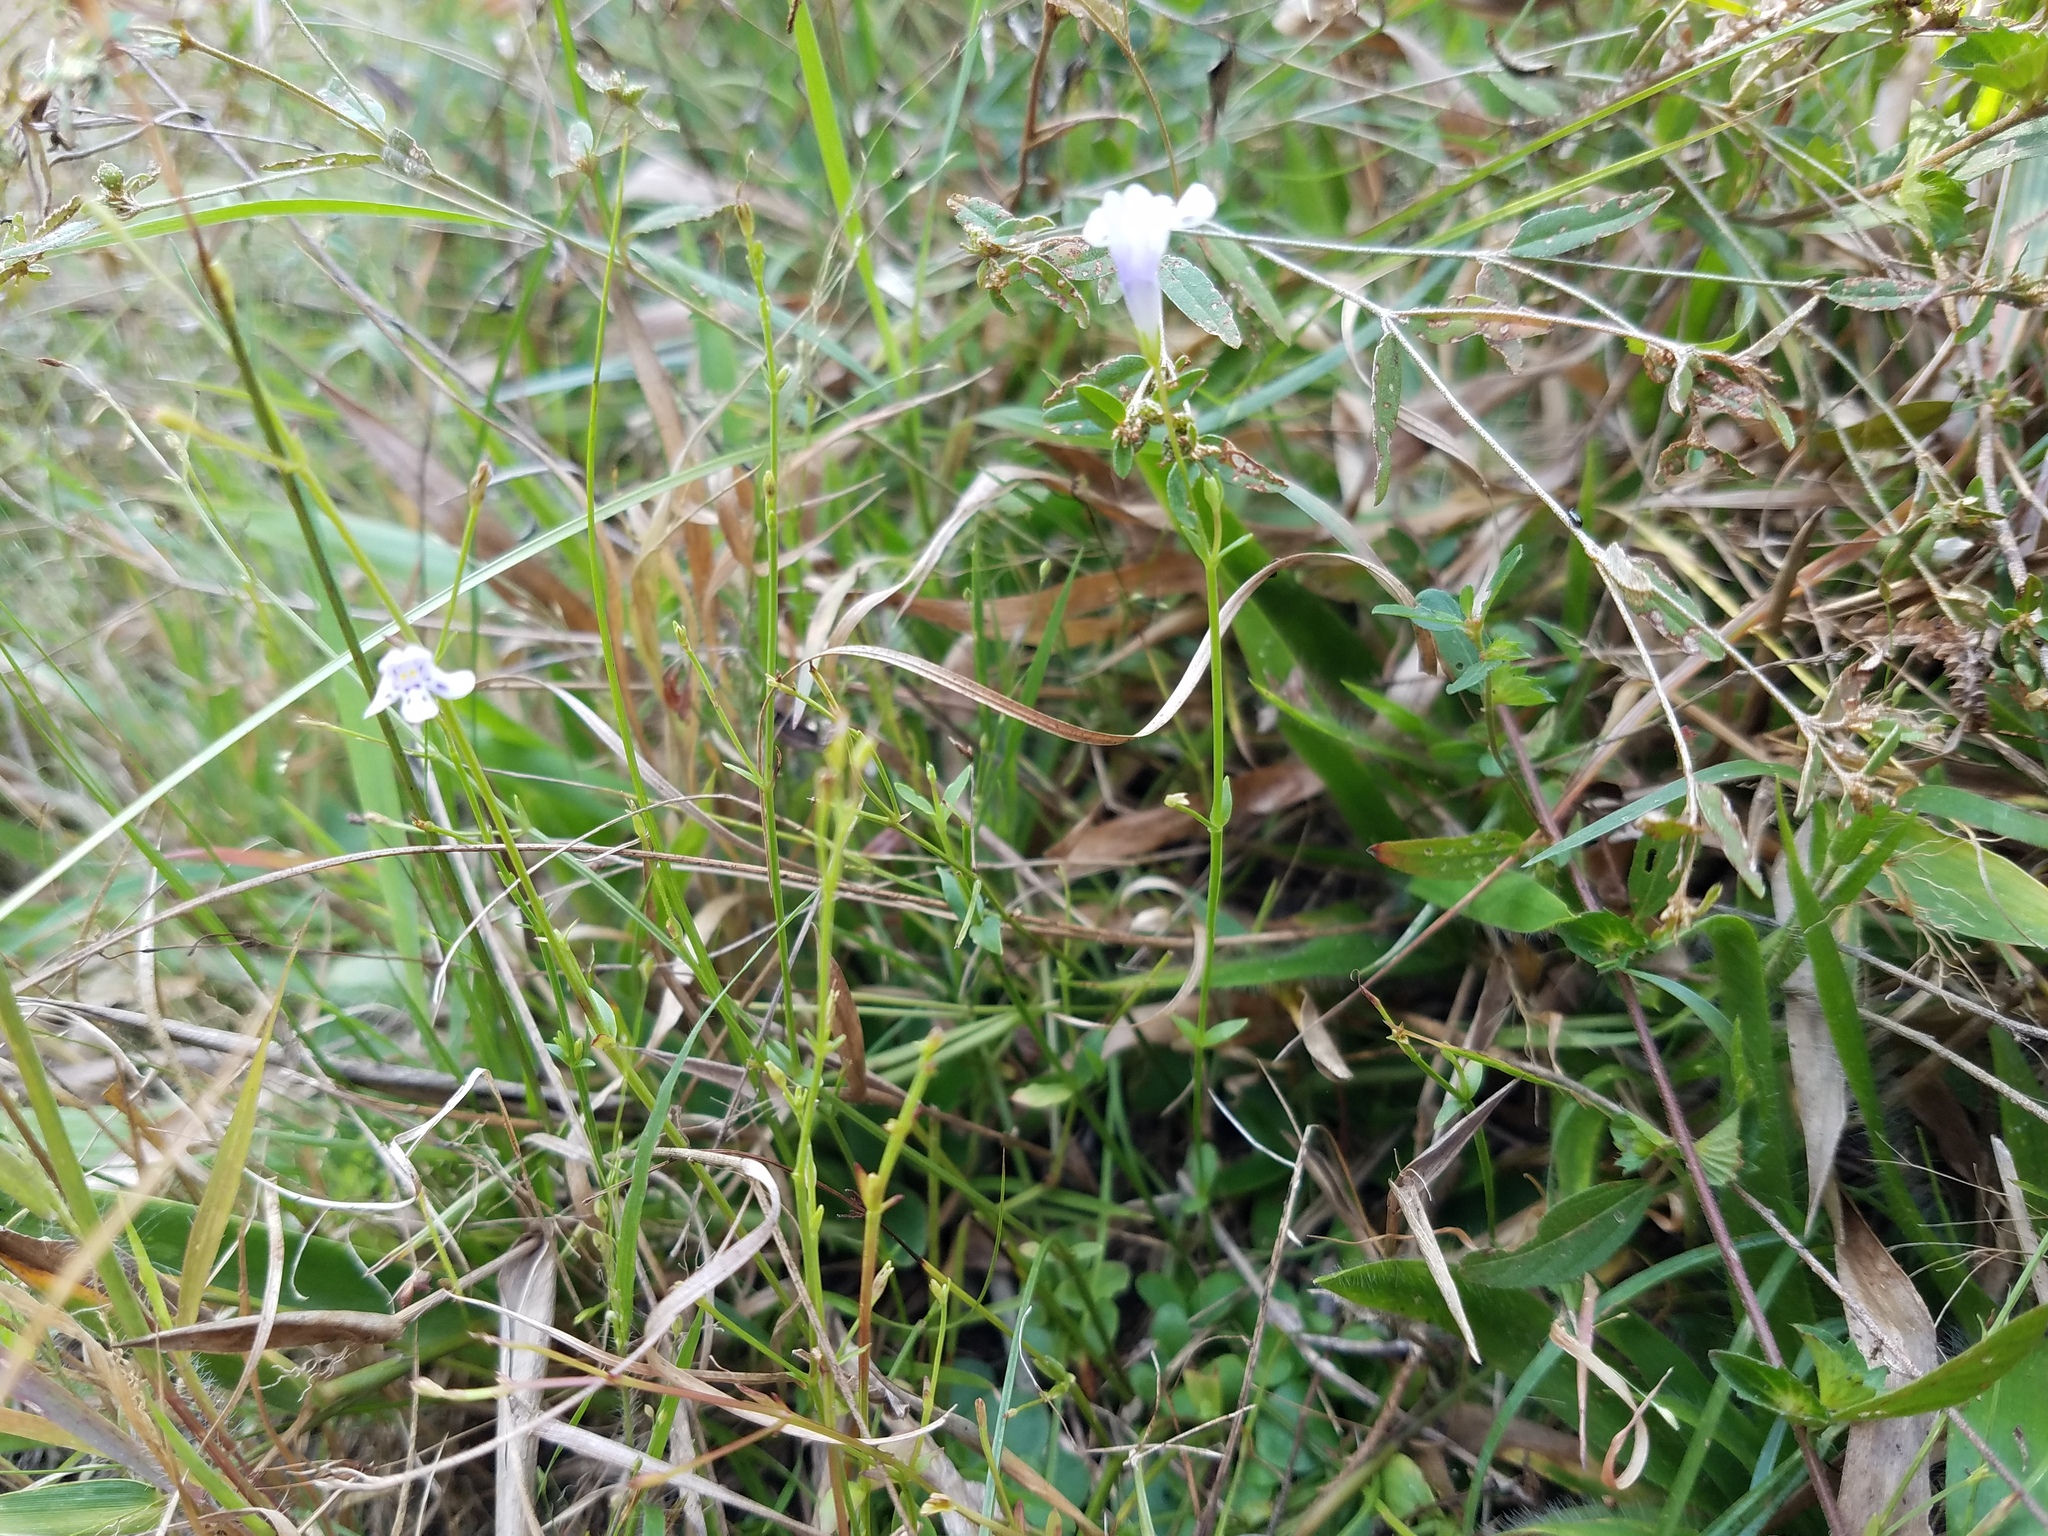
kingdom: Plantae
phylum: Tracheophyta
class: Magnoliopsida
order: Lamiales
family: Linderniaceae
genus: Lindernia
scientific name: Lindernia monticola
